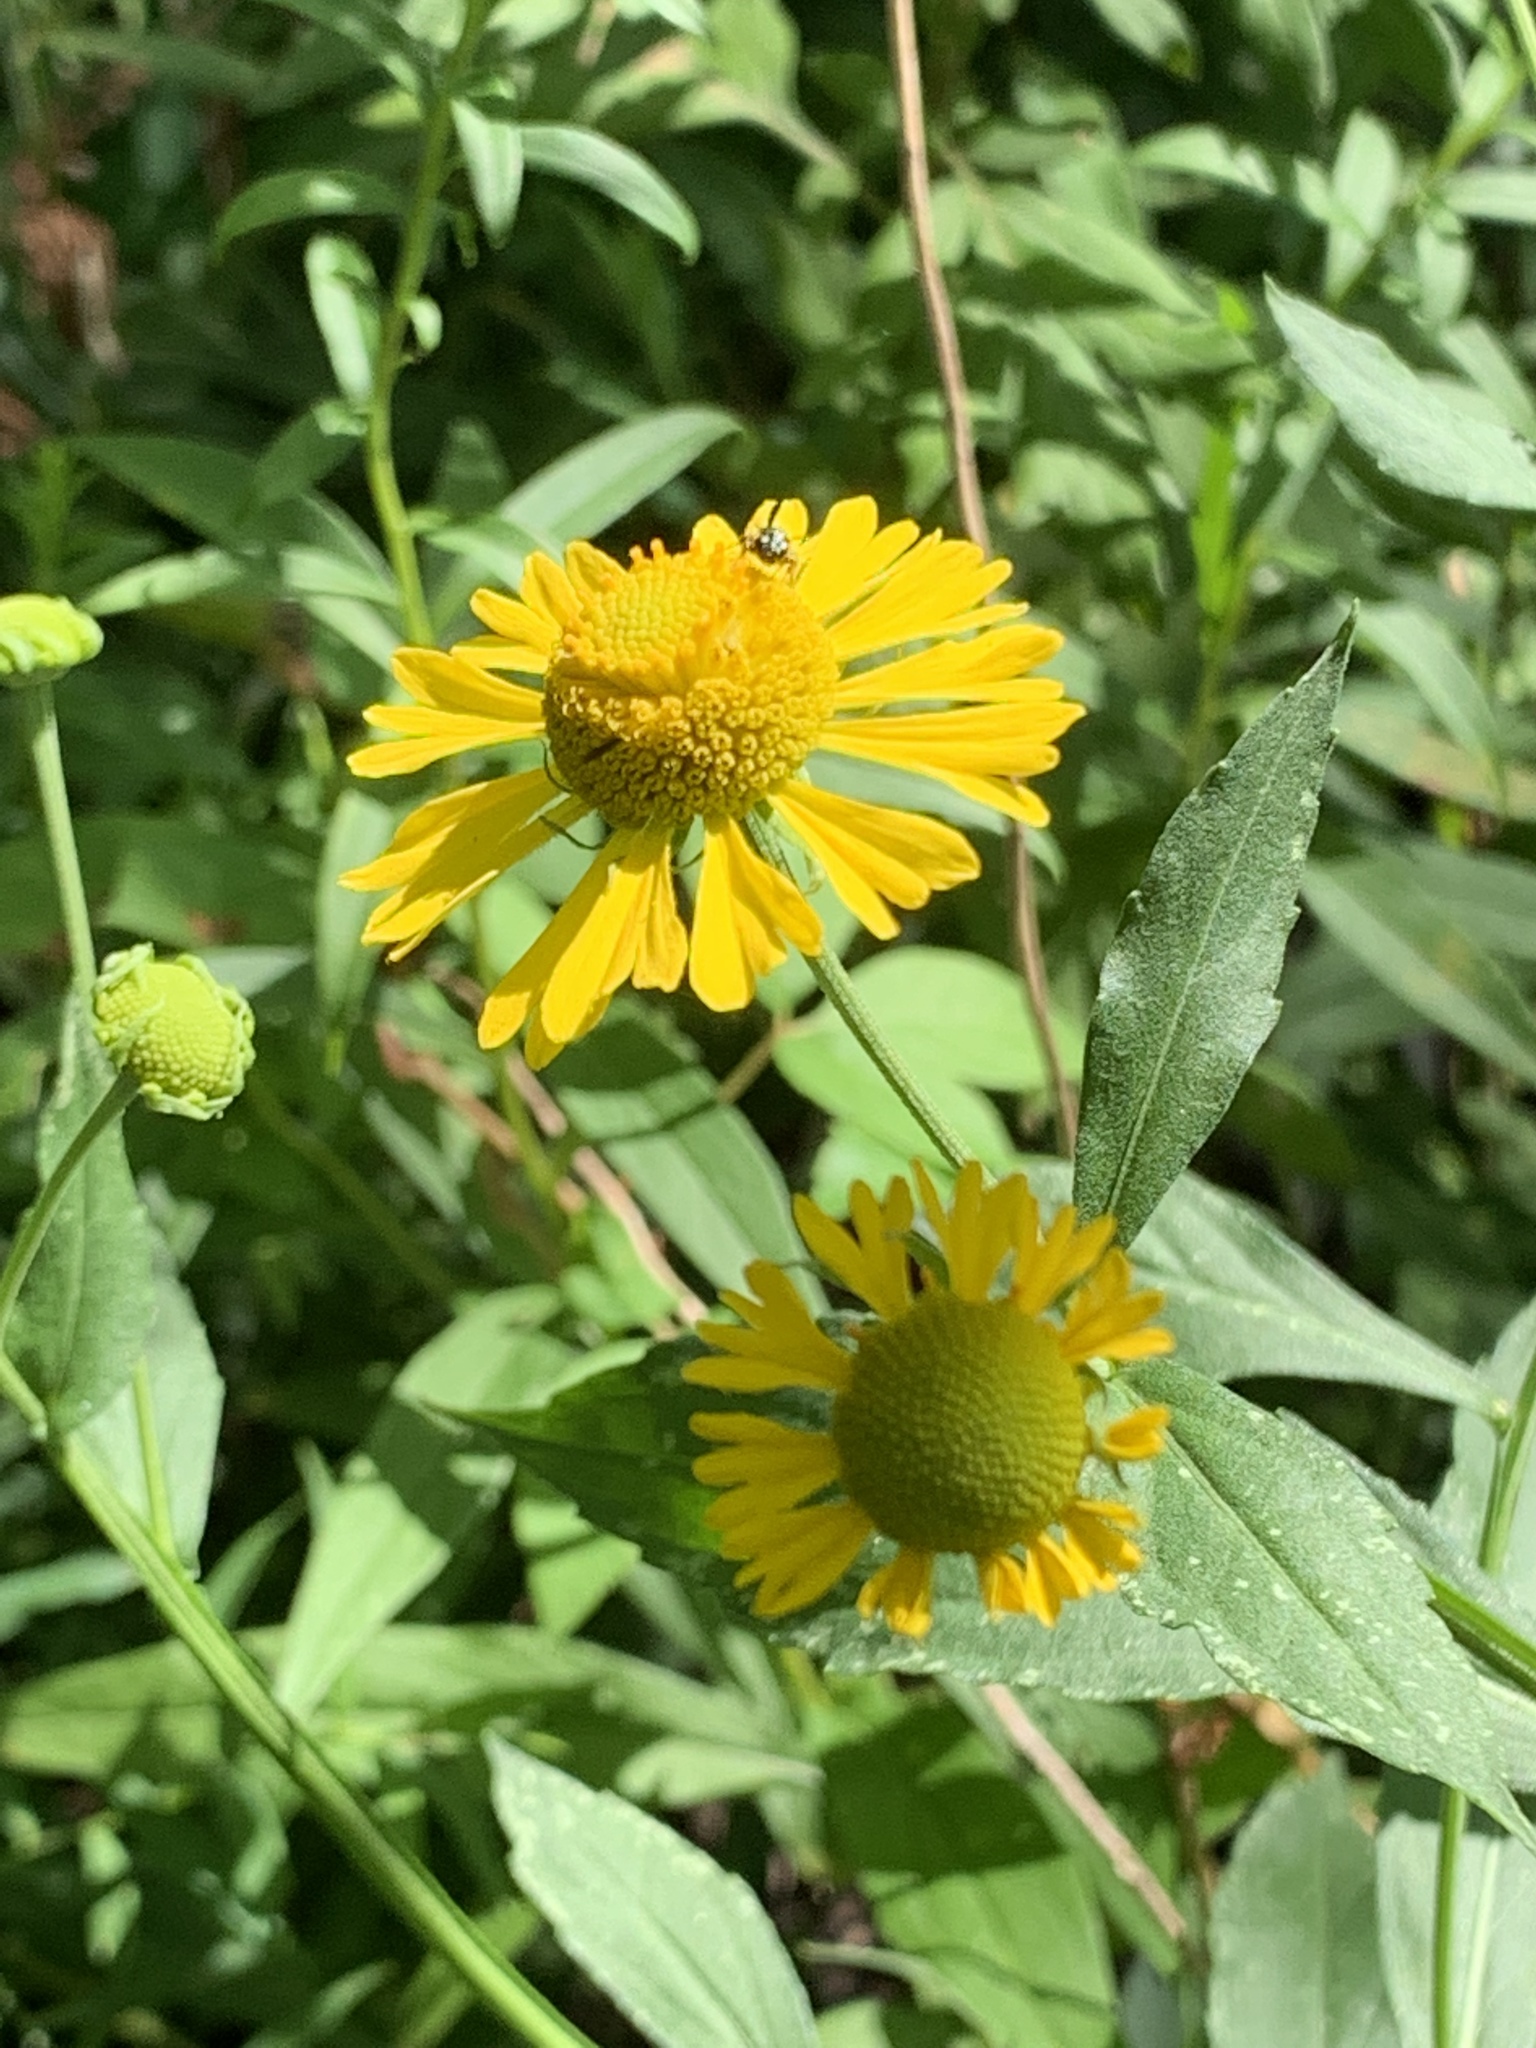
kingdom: Plantae
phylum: Tracheophyta
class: Magnoliopsida
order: Asterales
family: Asteraceae
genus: Helenium
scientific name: Helenium autumnale
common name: Sneezeweed
